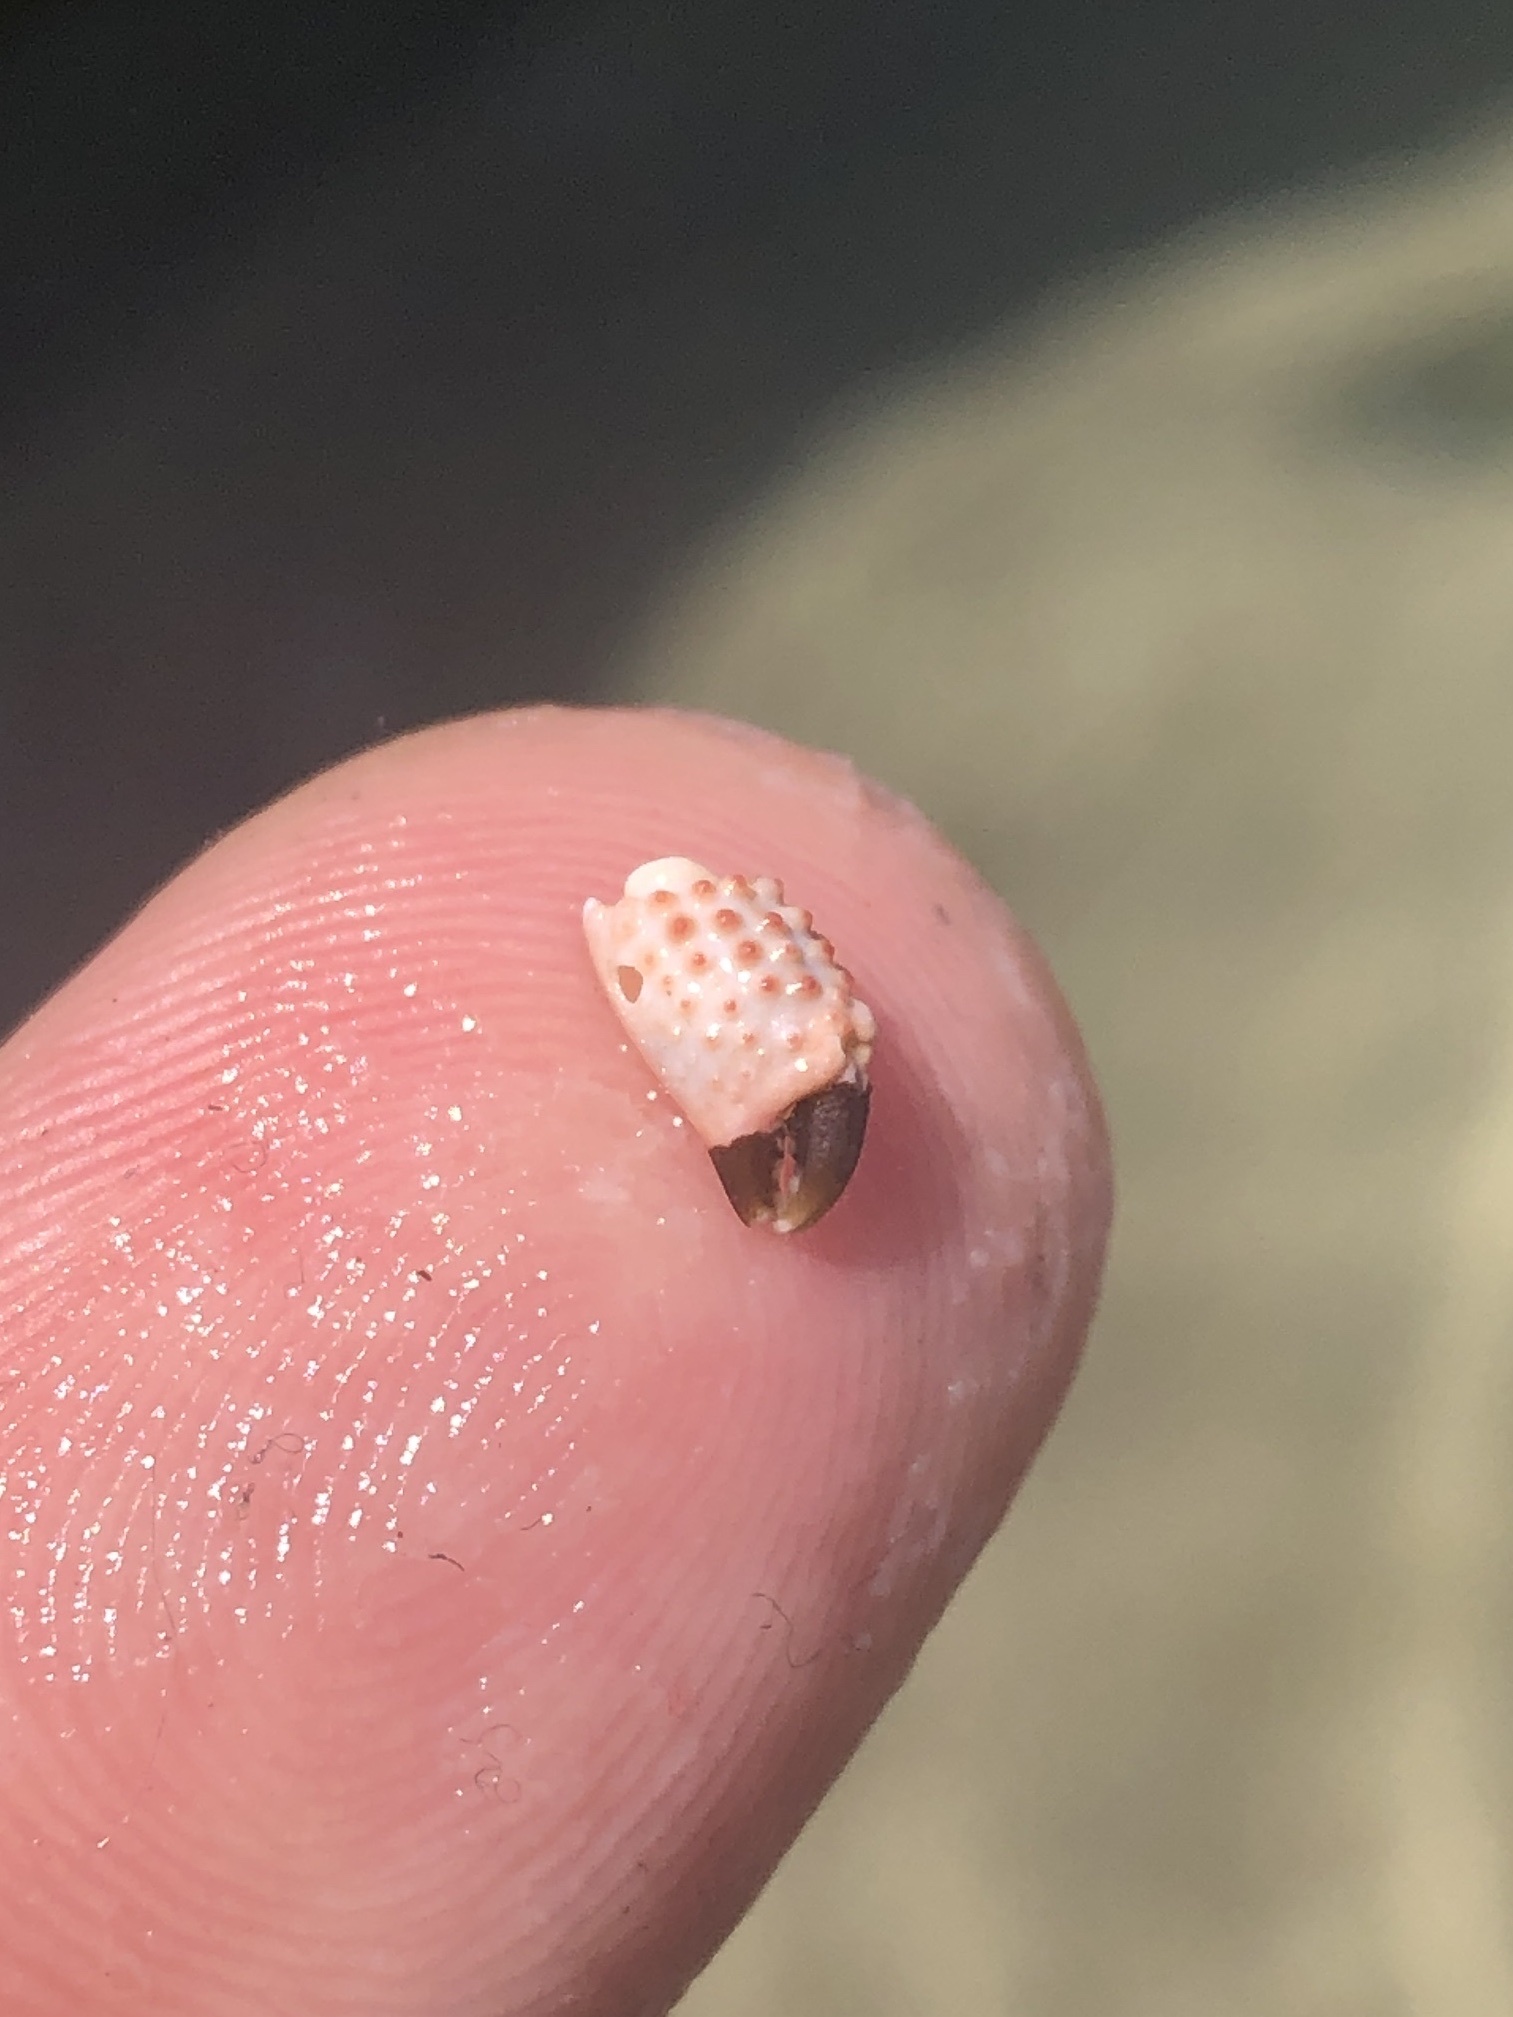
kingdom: Animalia
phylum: Arthropoda
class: Malacostraca
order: Decapoda
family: Xanthidae
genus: Paraxanthias
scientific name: Paraxanthias taylori
